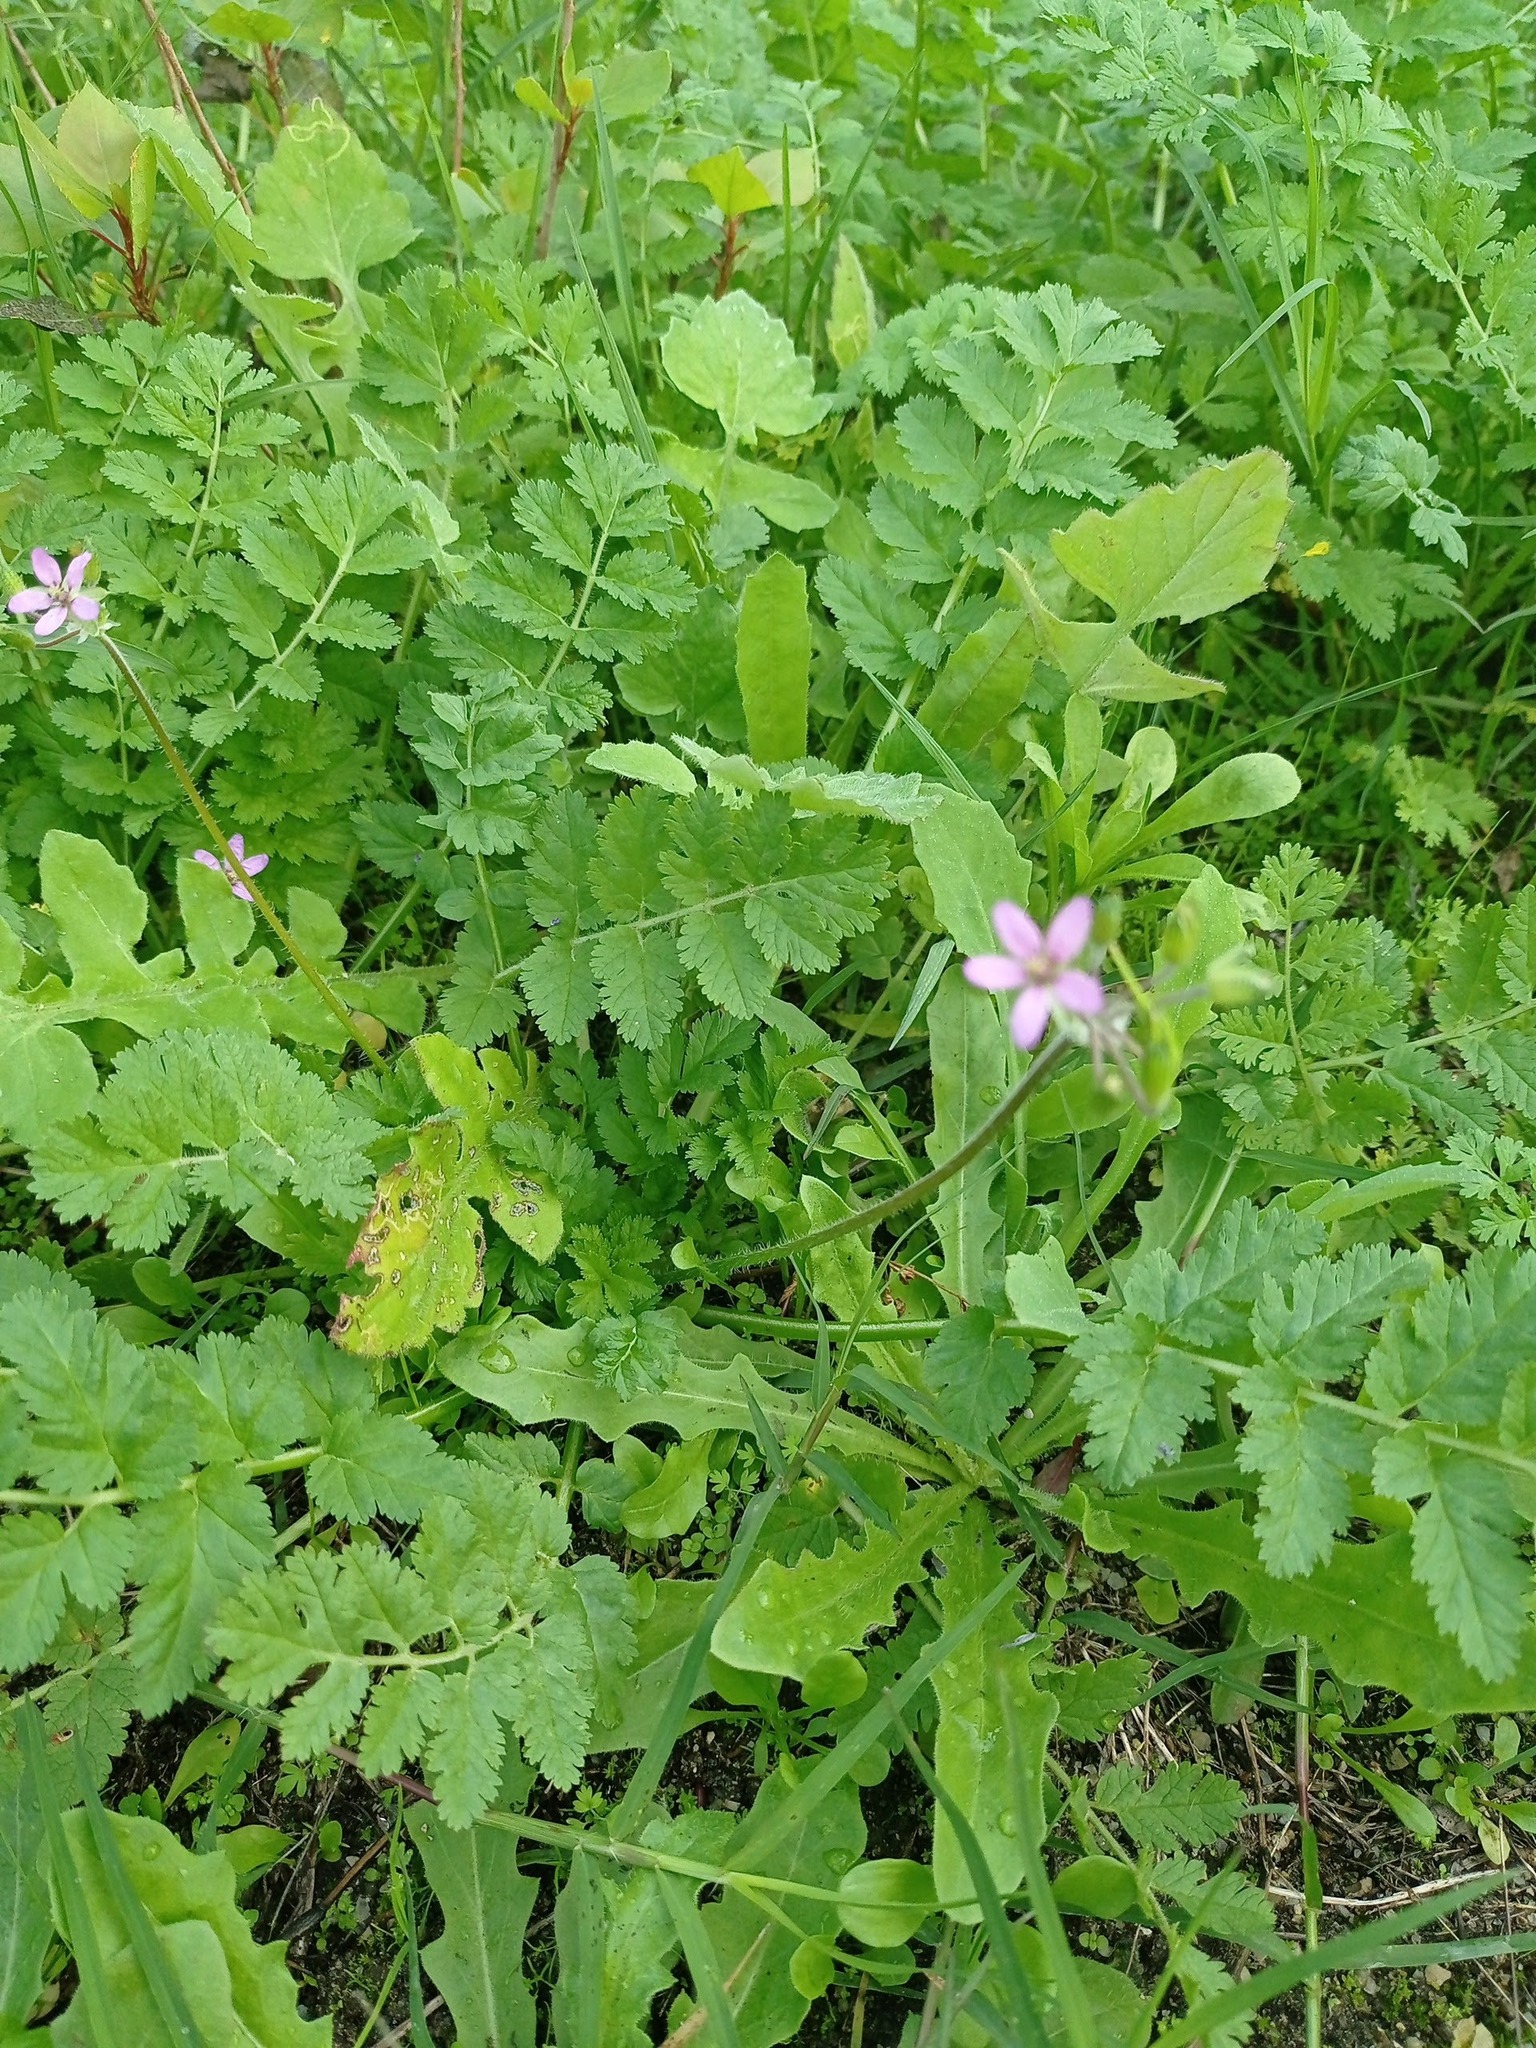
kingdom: Plantae
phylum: Tracheophyta
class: Magnoliopsida
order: Geraniales
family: Geraniaceae
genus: Erodium
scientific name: Erodium moschatum
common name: Musk stork's-bill
